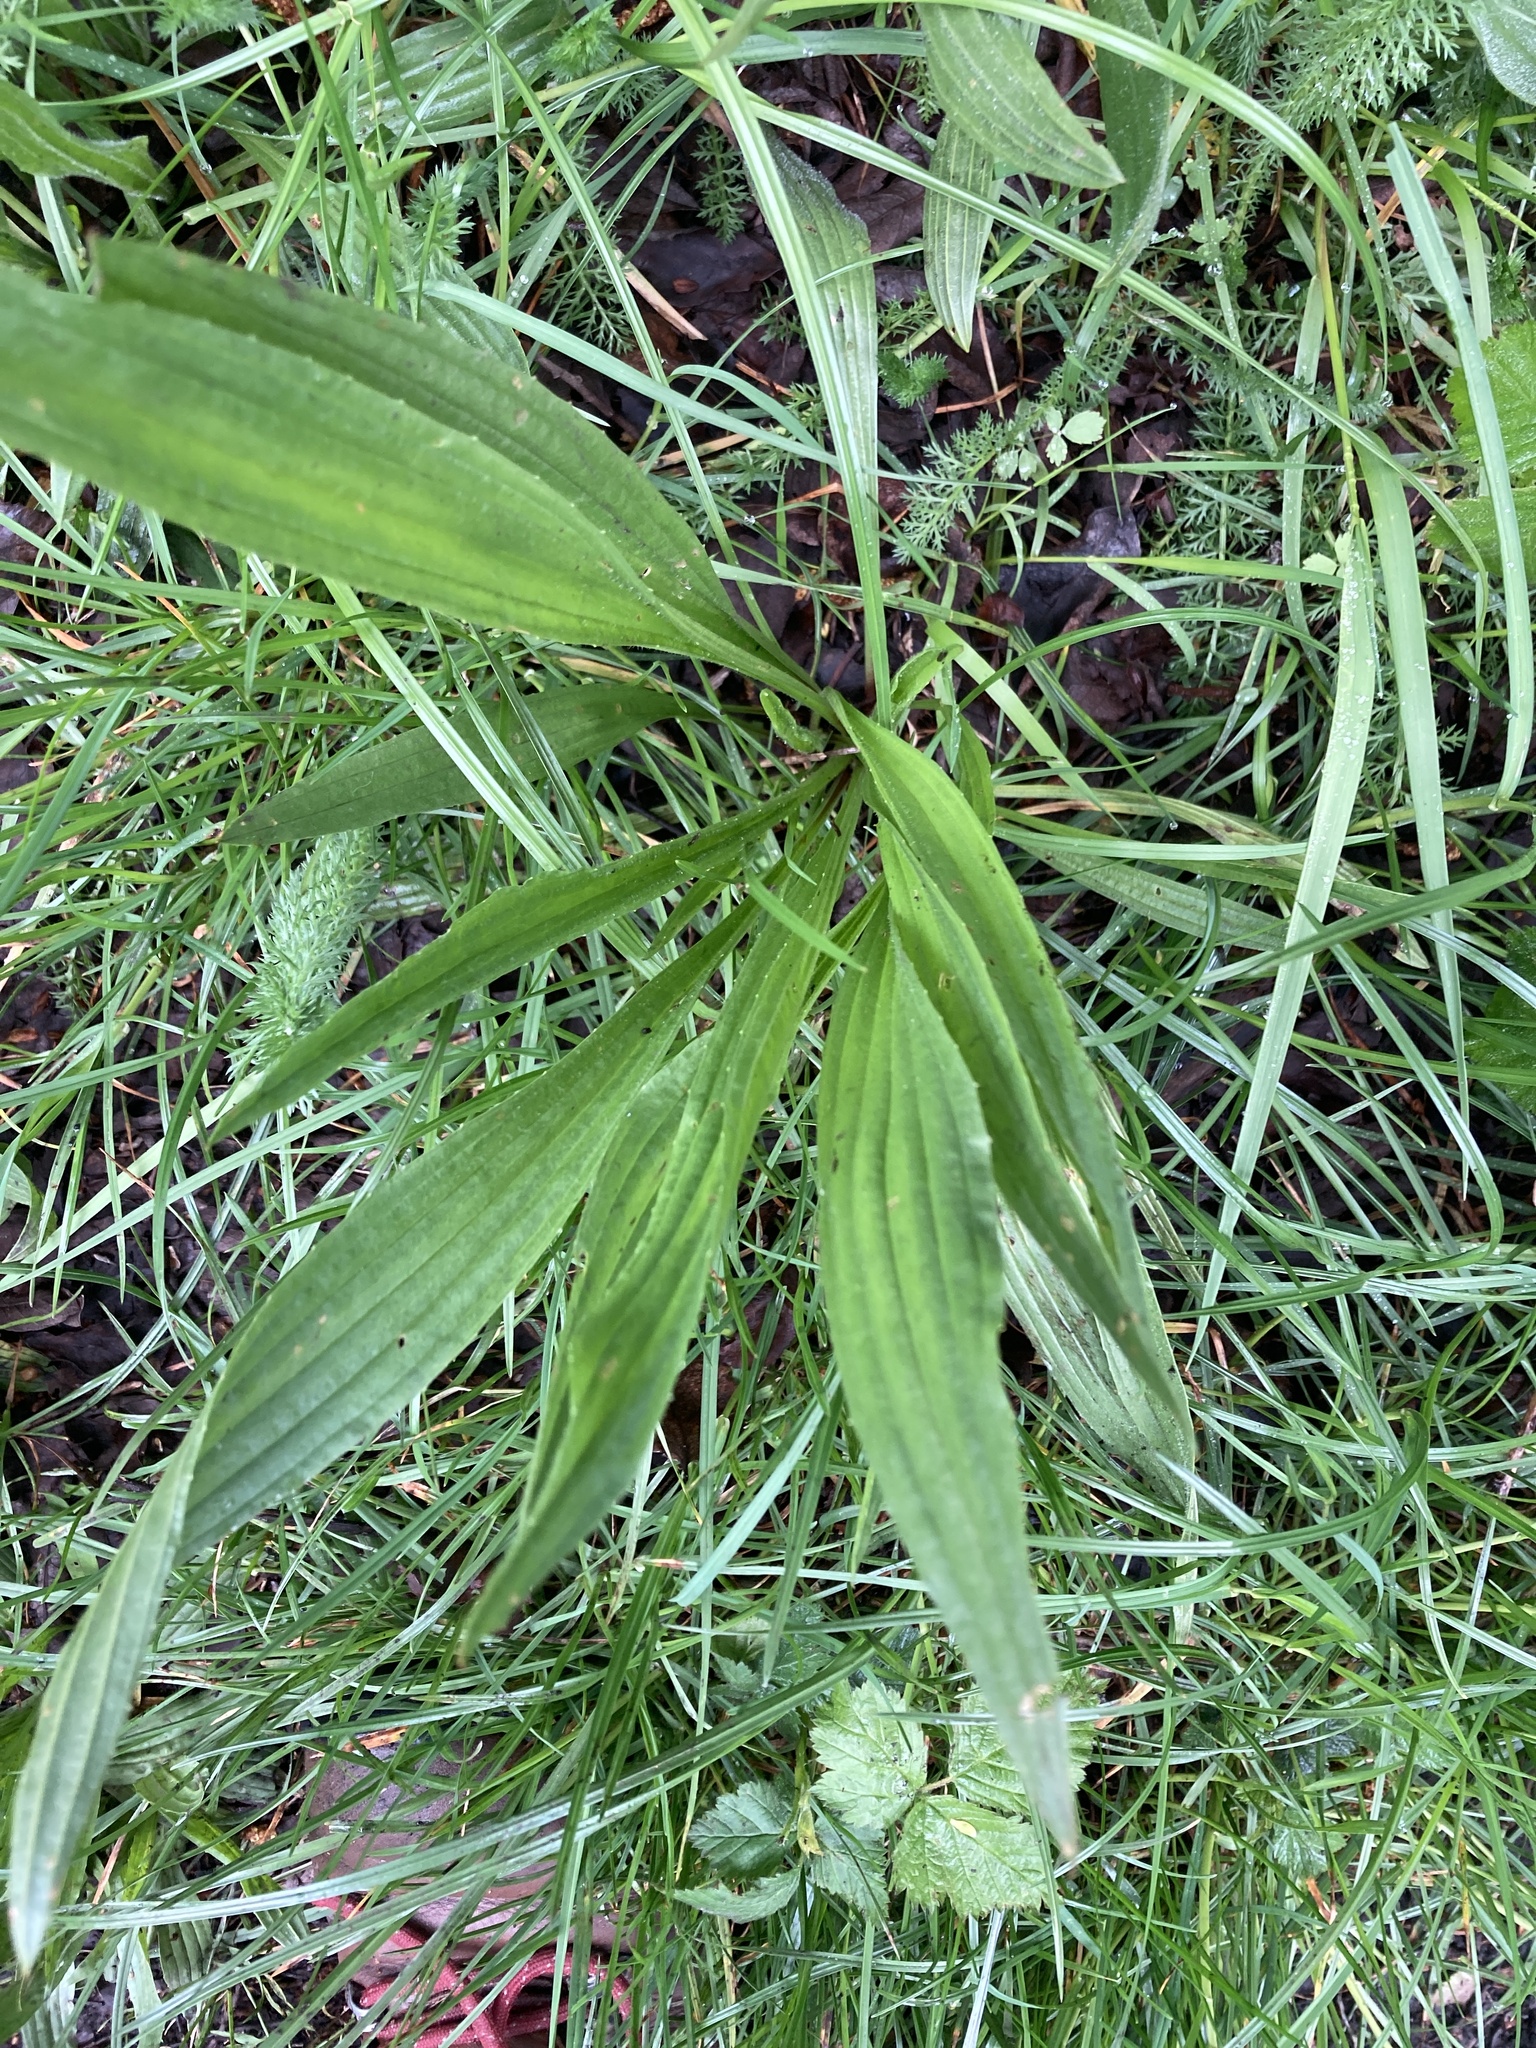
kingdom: Plantae
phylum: Tracheophyta
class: Magnoliopsida
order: Lamiales
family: Plantaginaceae
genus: Plantago
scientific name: Plantago lanceolata
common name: Ribwort plantain
